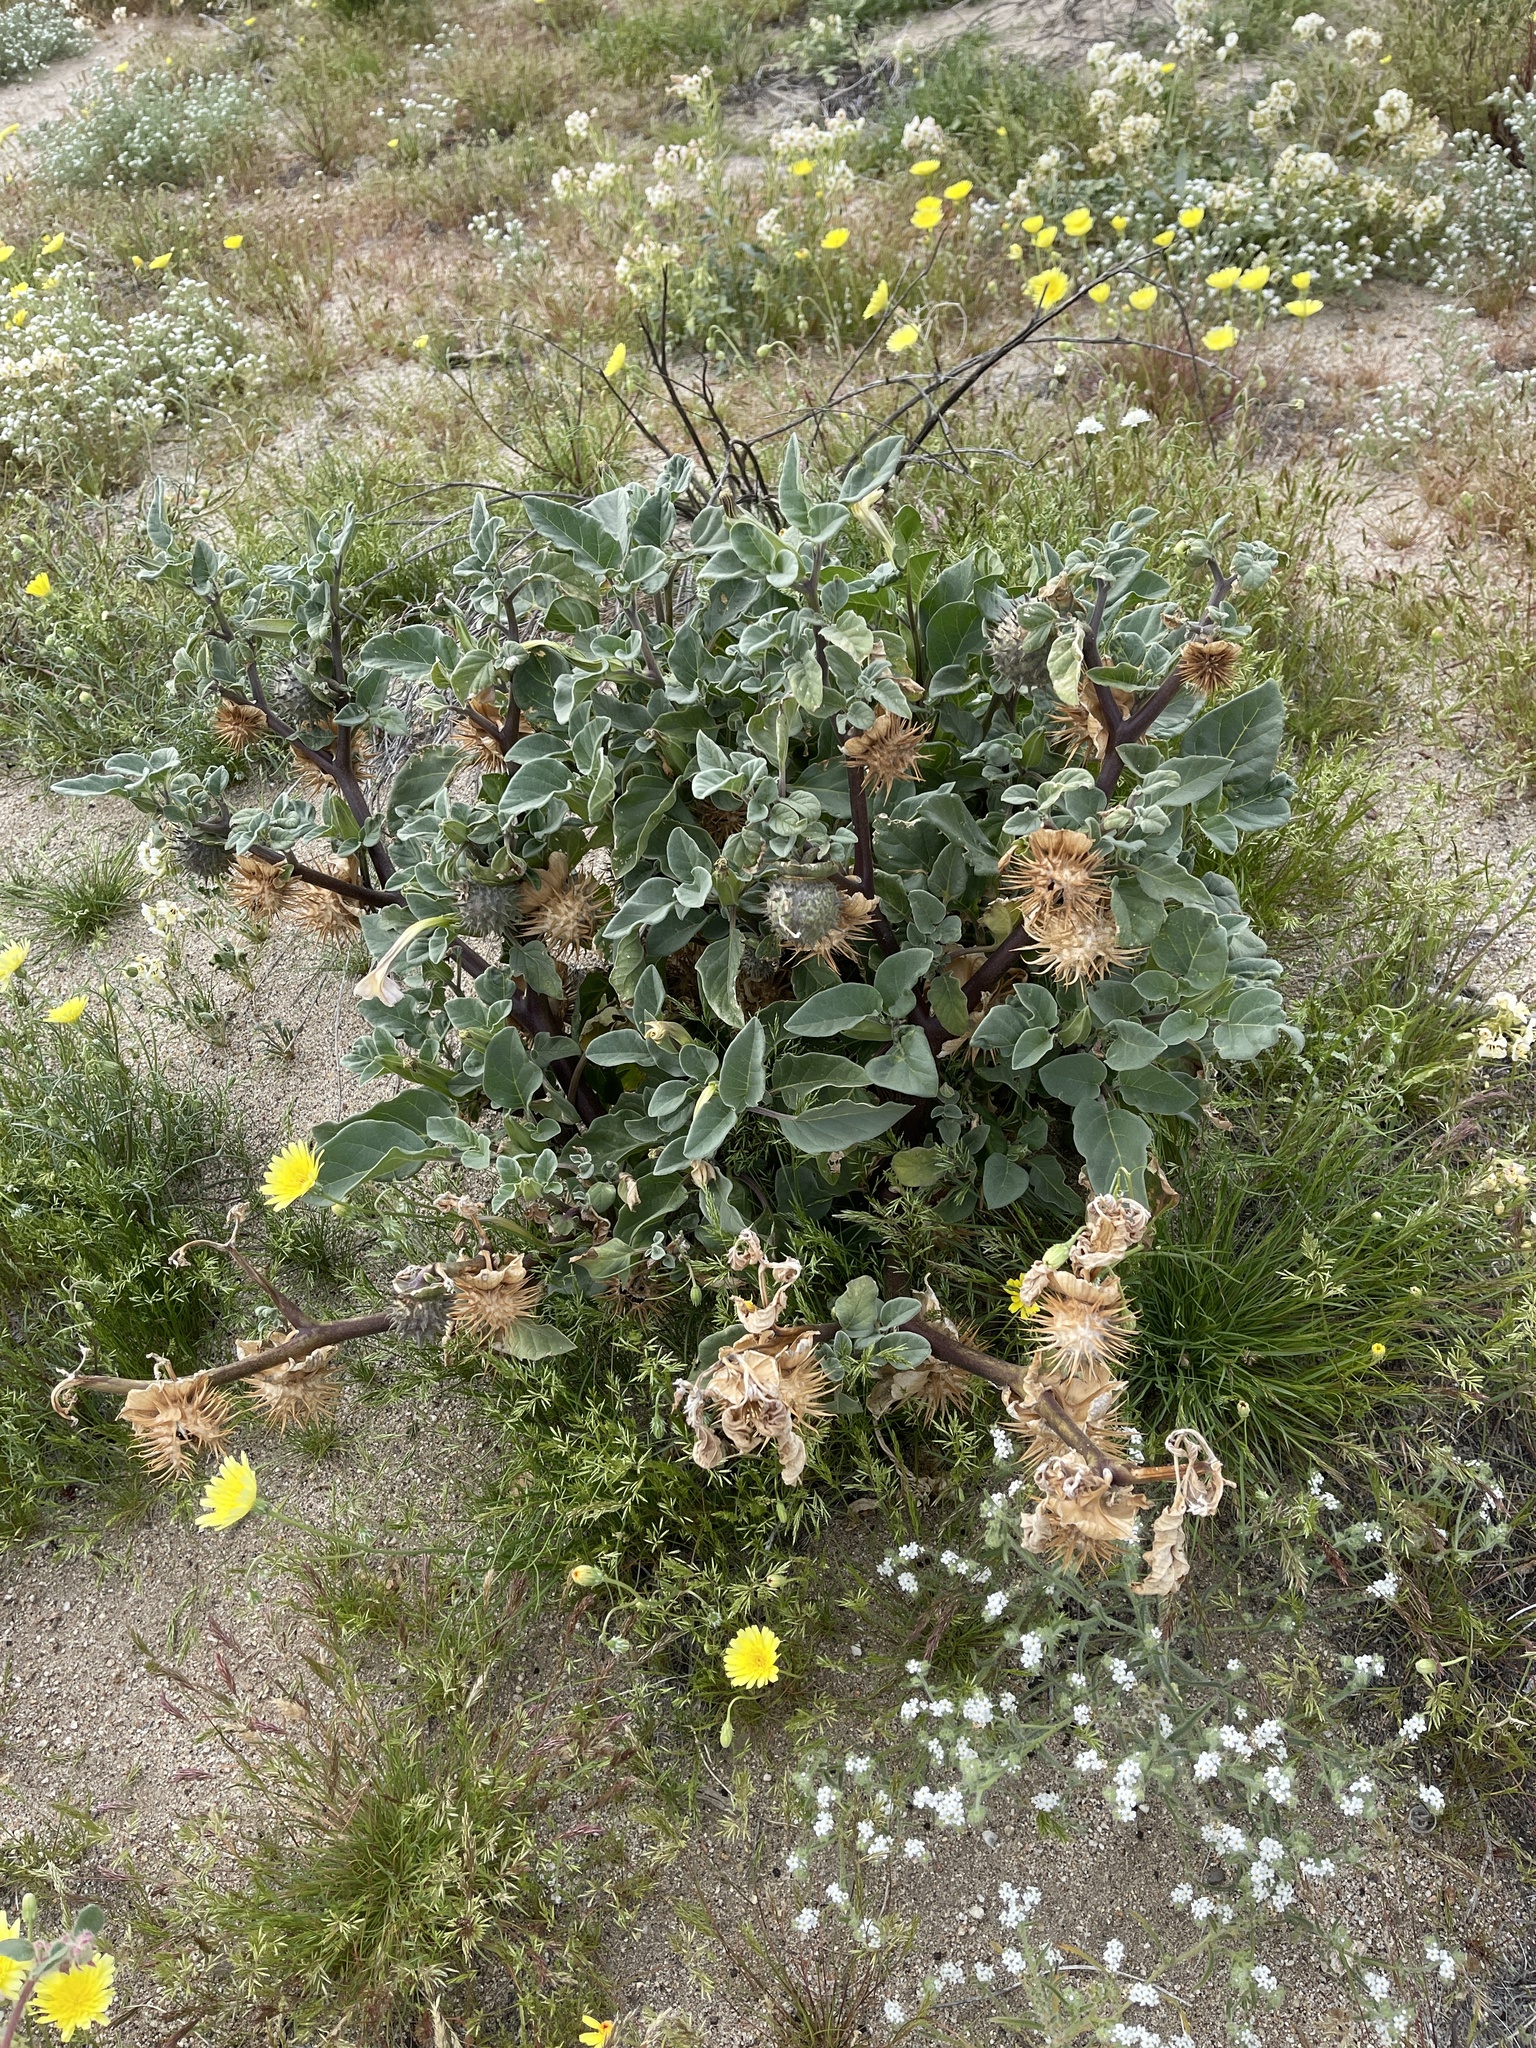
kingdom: Plantae
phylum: Tracheophyta
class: Magnoliopsida
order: Solanales
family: Solanaceae
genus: Datura
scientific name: Datura discolor
